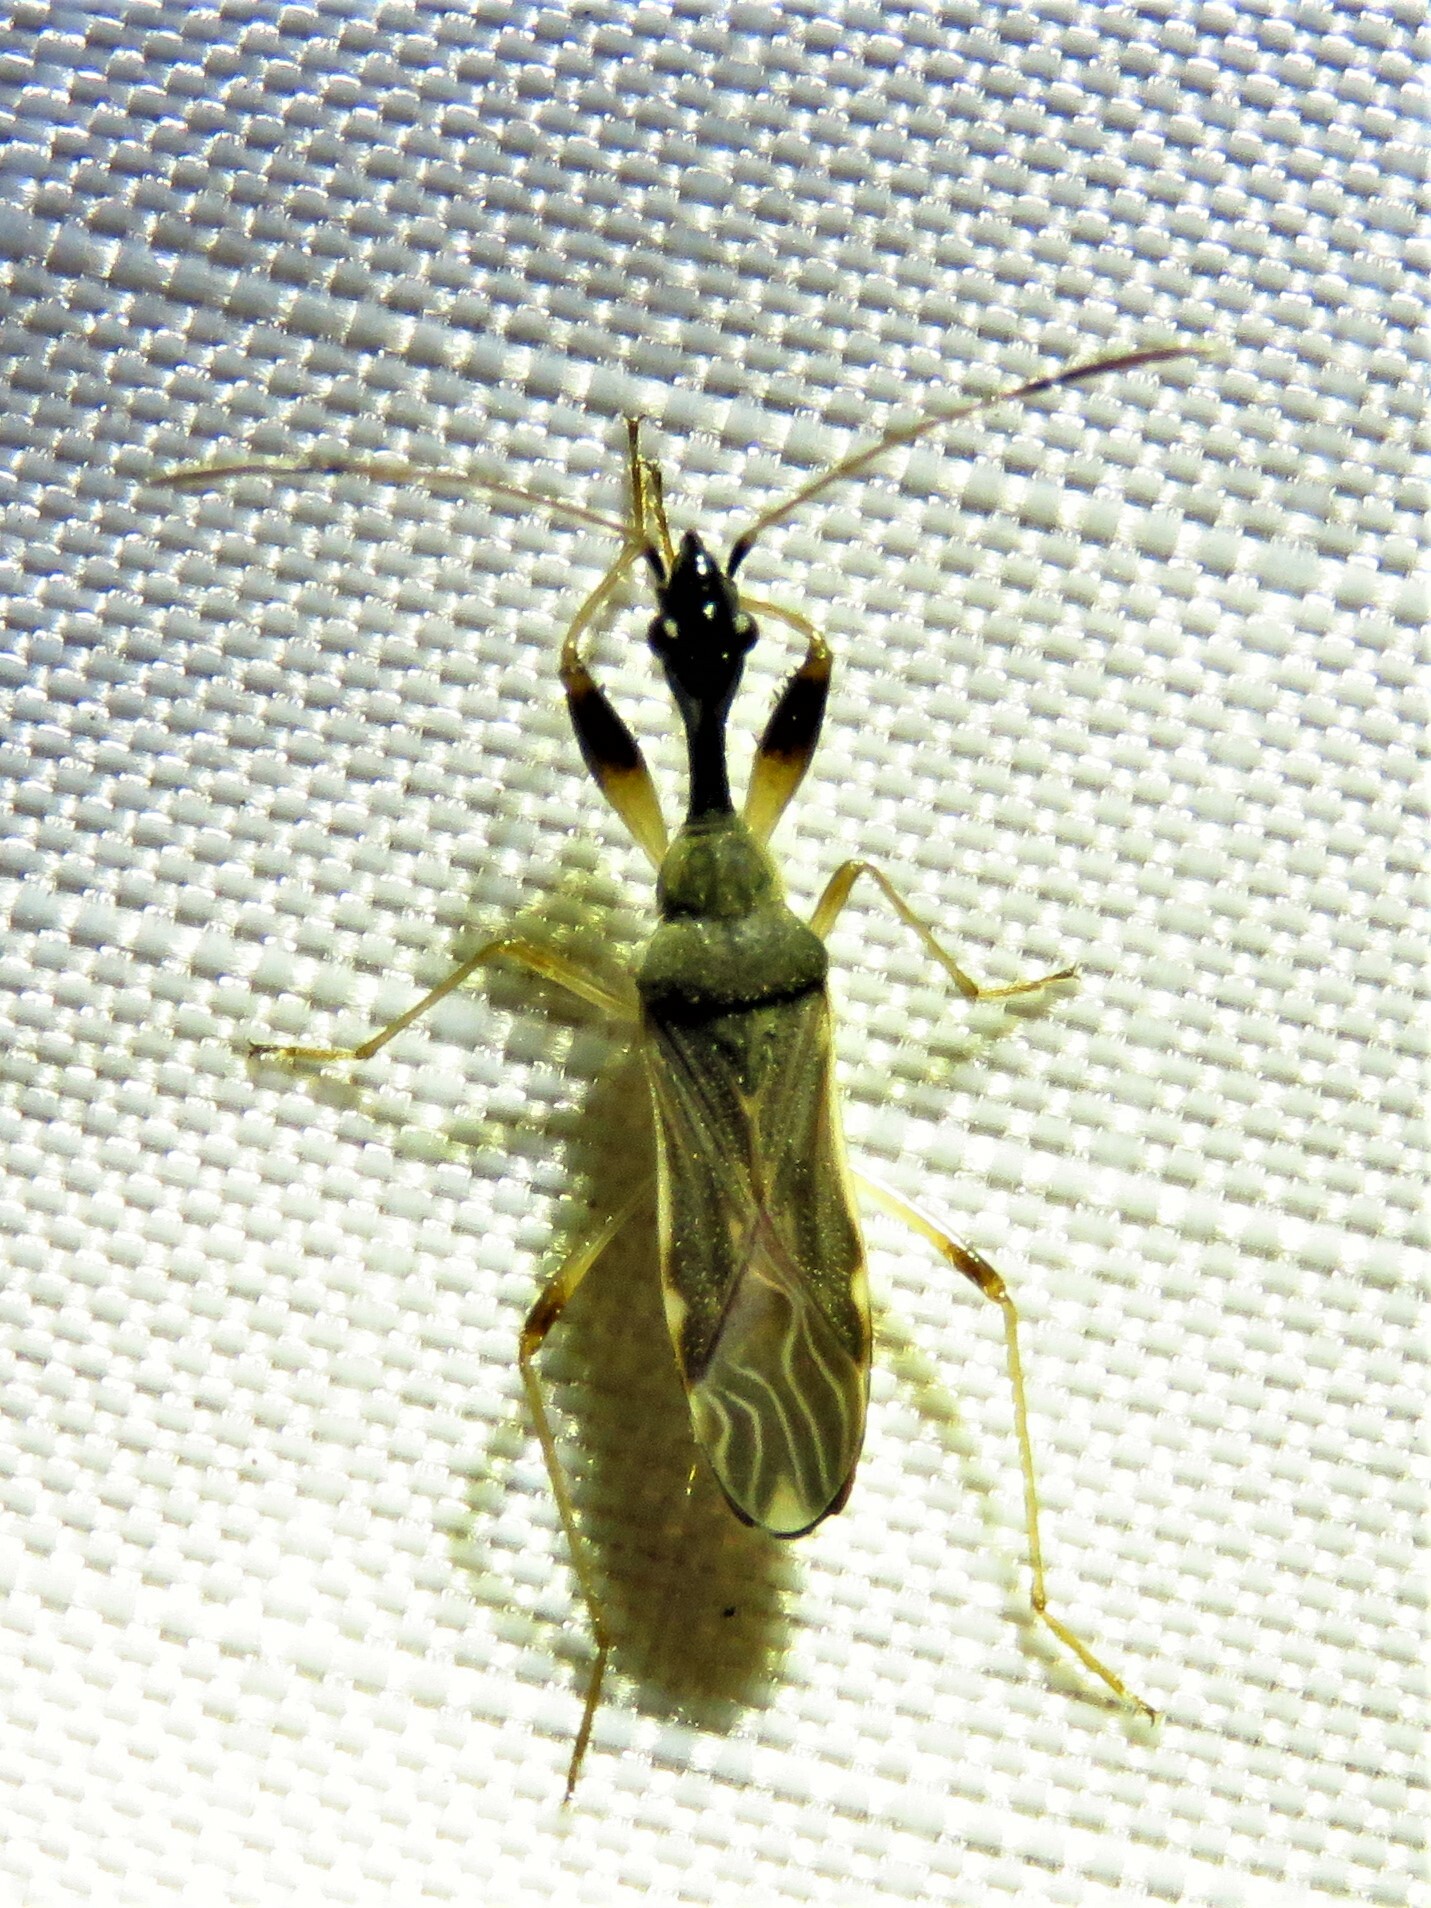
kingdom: Animalia
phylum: Arthropoda
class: Insecta
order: Hemiptera
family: Rhyparochromidae
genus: Myodocha
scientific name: Myodocha serripes
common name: Long-necked seed bug
